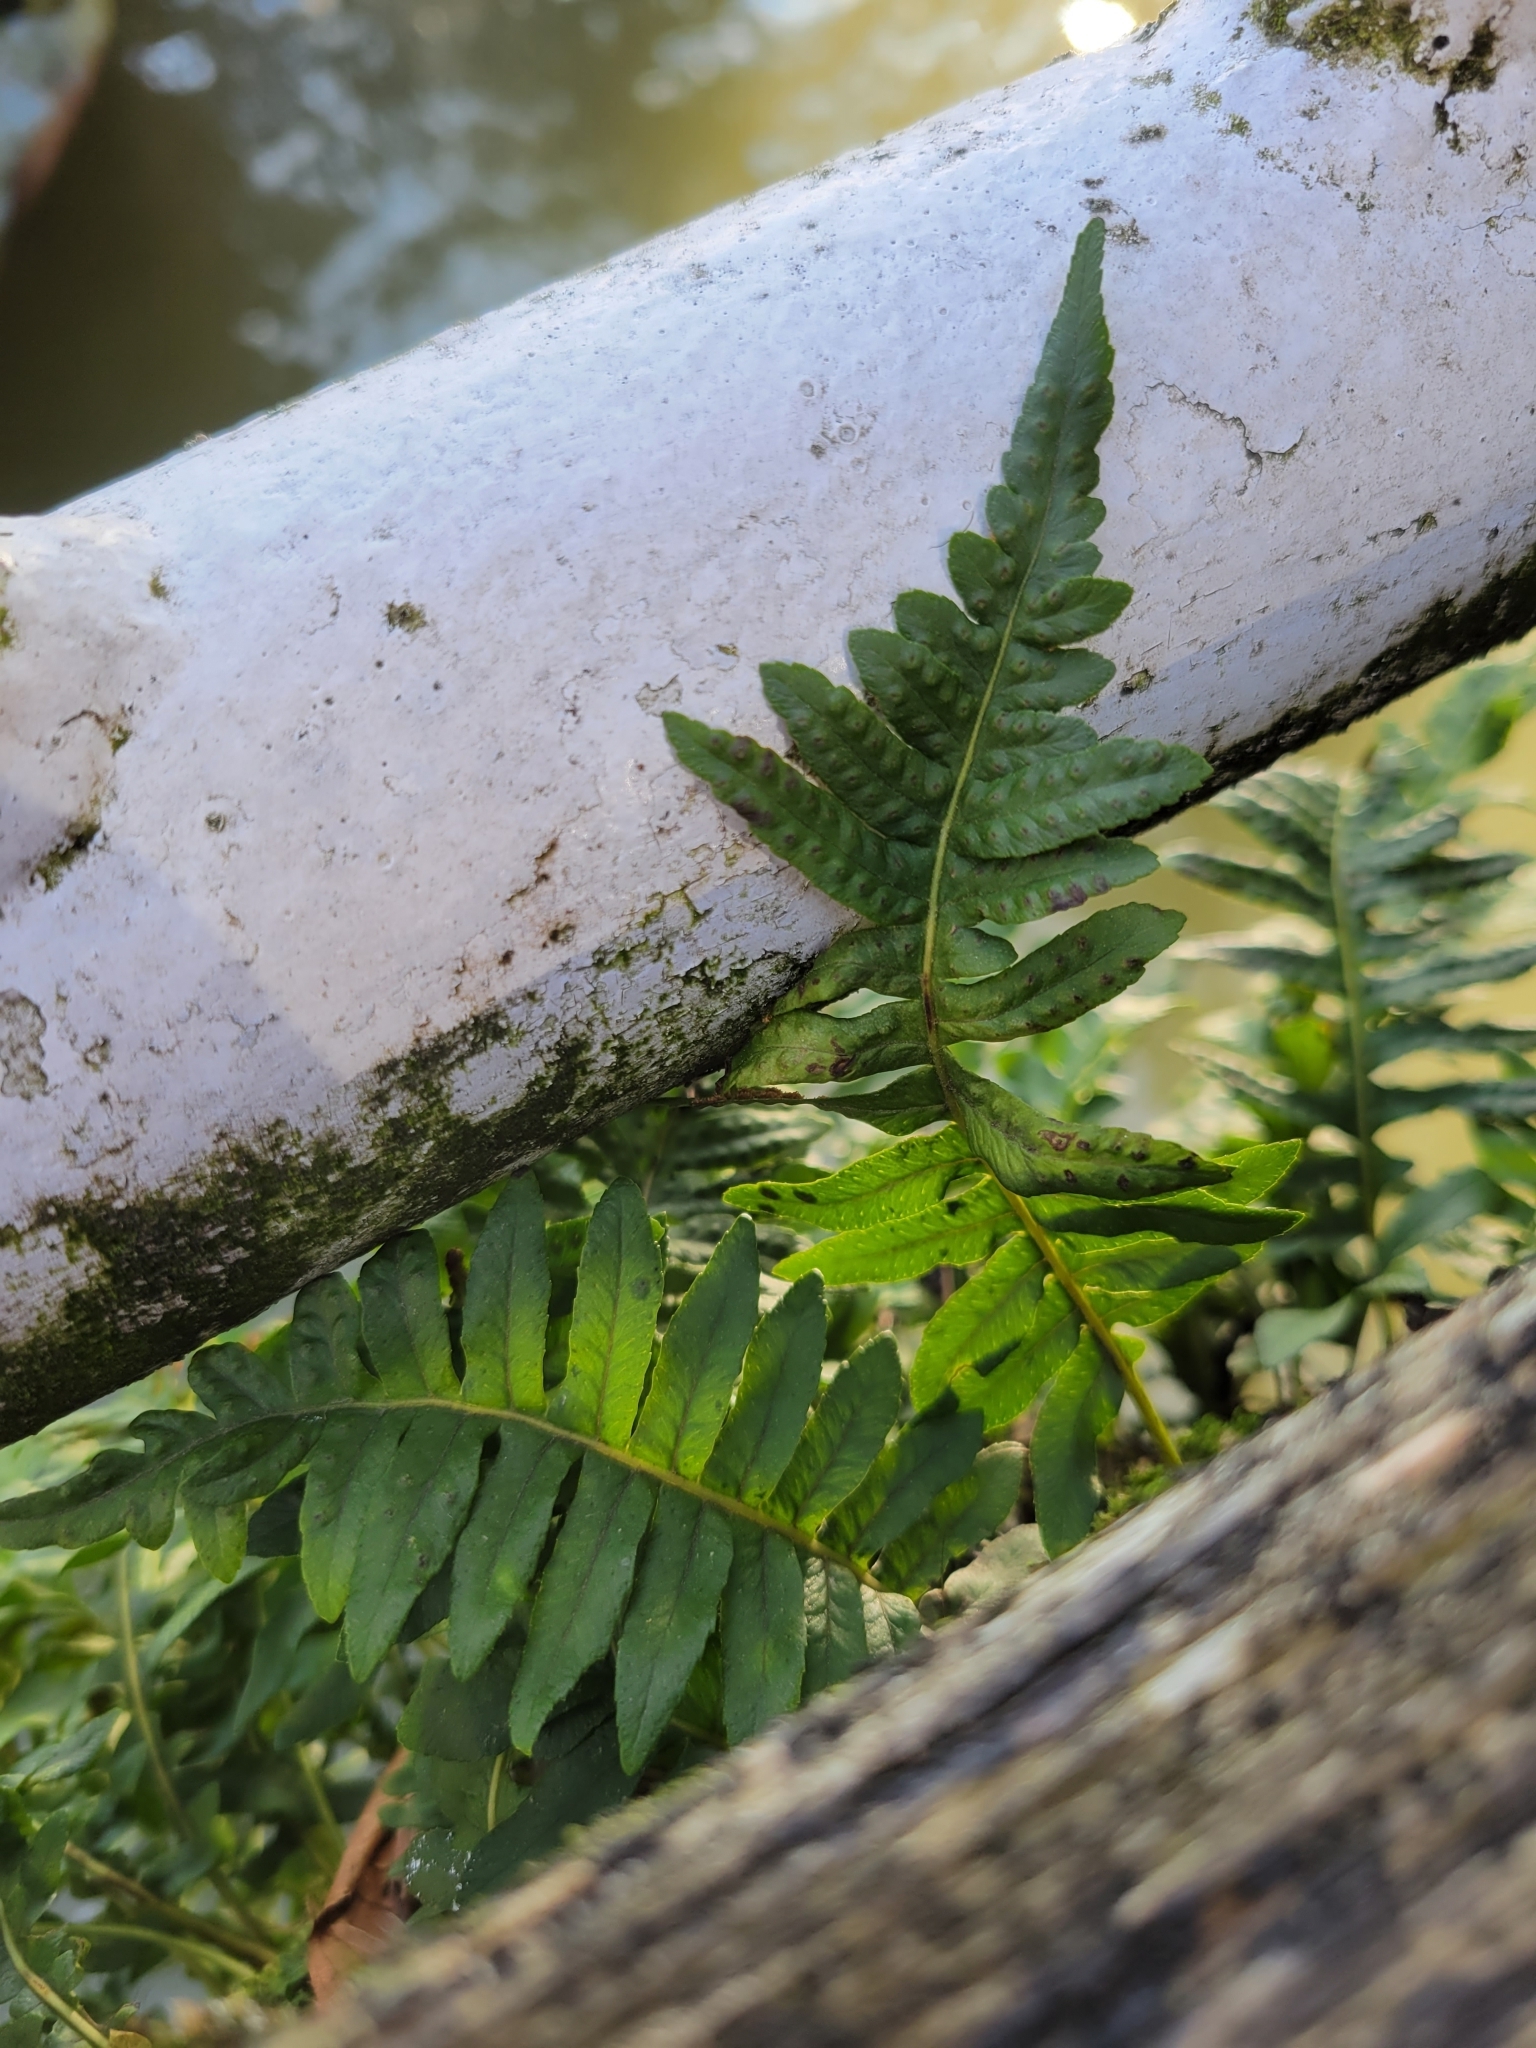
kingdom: Plantae
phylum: Tracheophyta
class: Polypodiopsida
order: Polypodiales
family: Polypodiaceae
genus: Polypodium
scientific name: Polypodium glycyrrhiza
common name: Licorice fern
